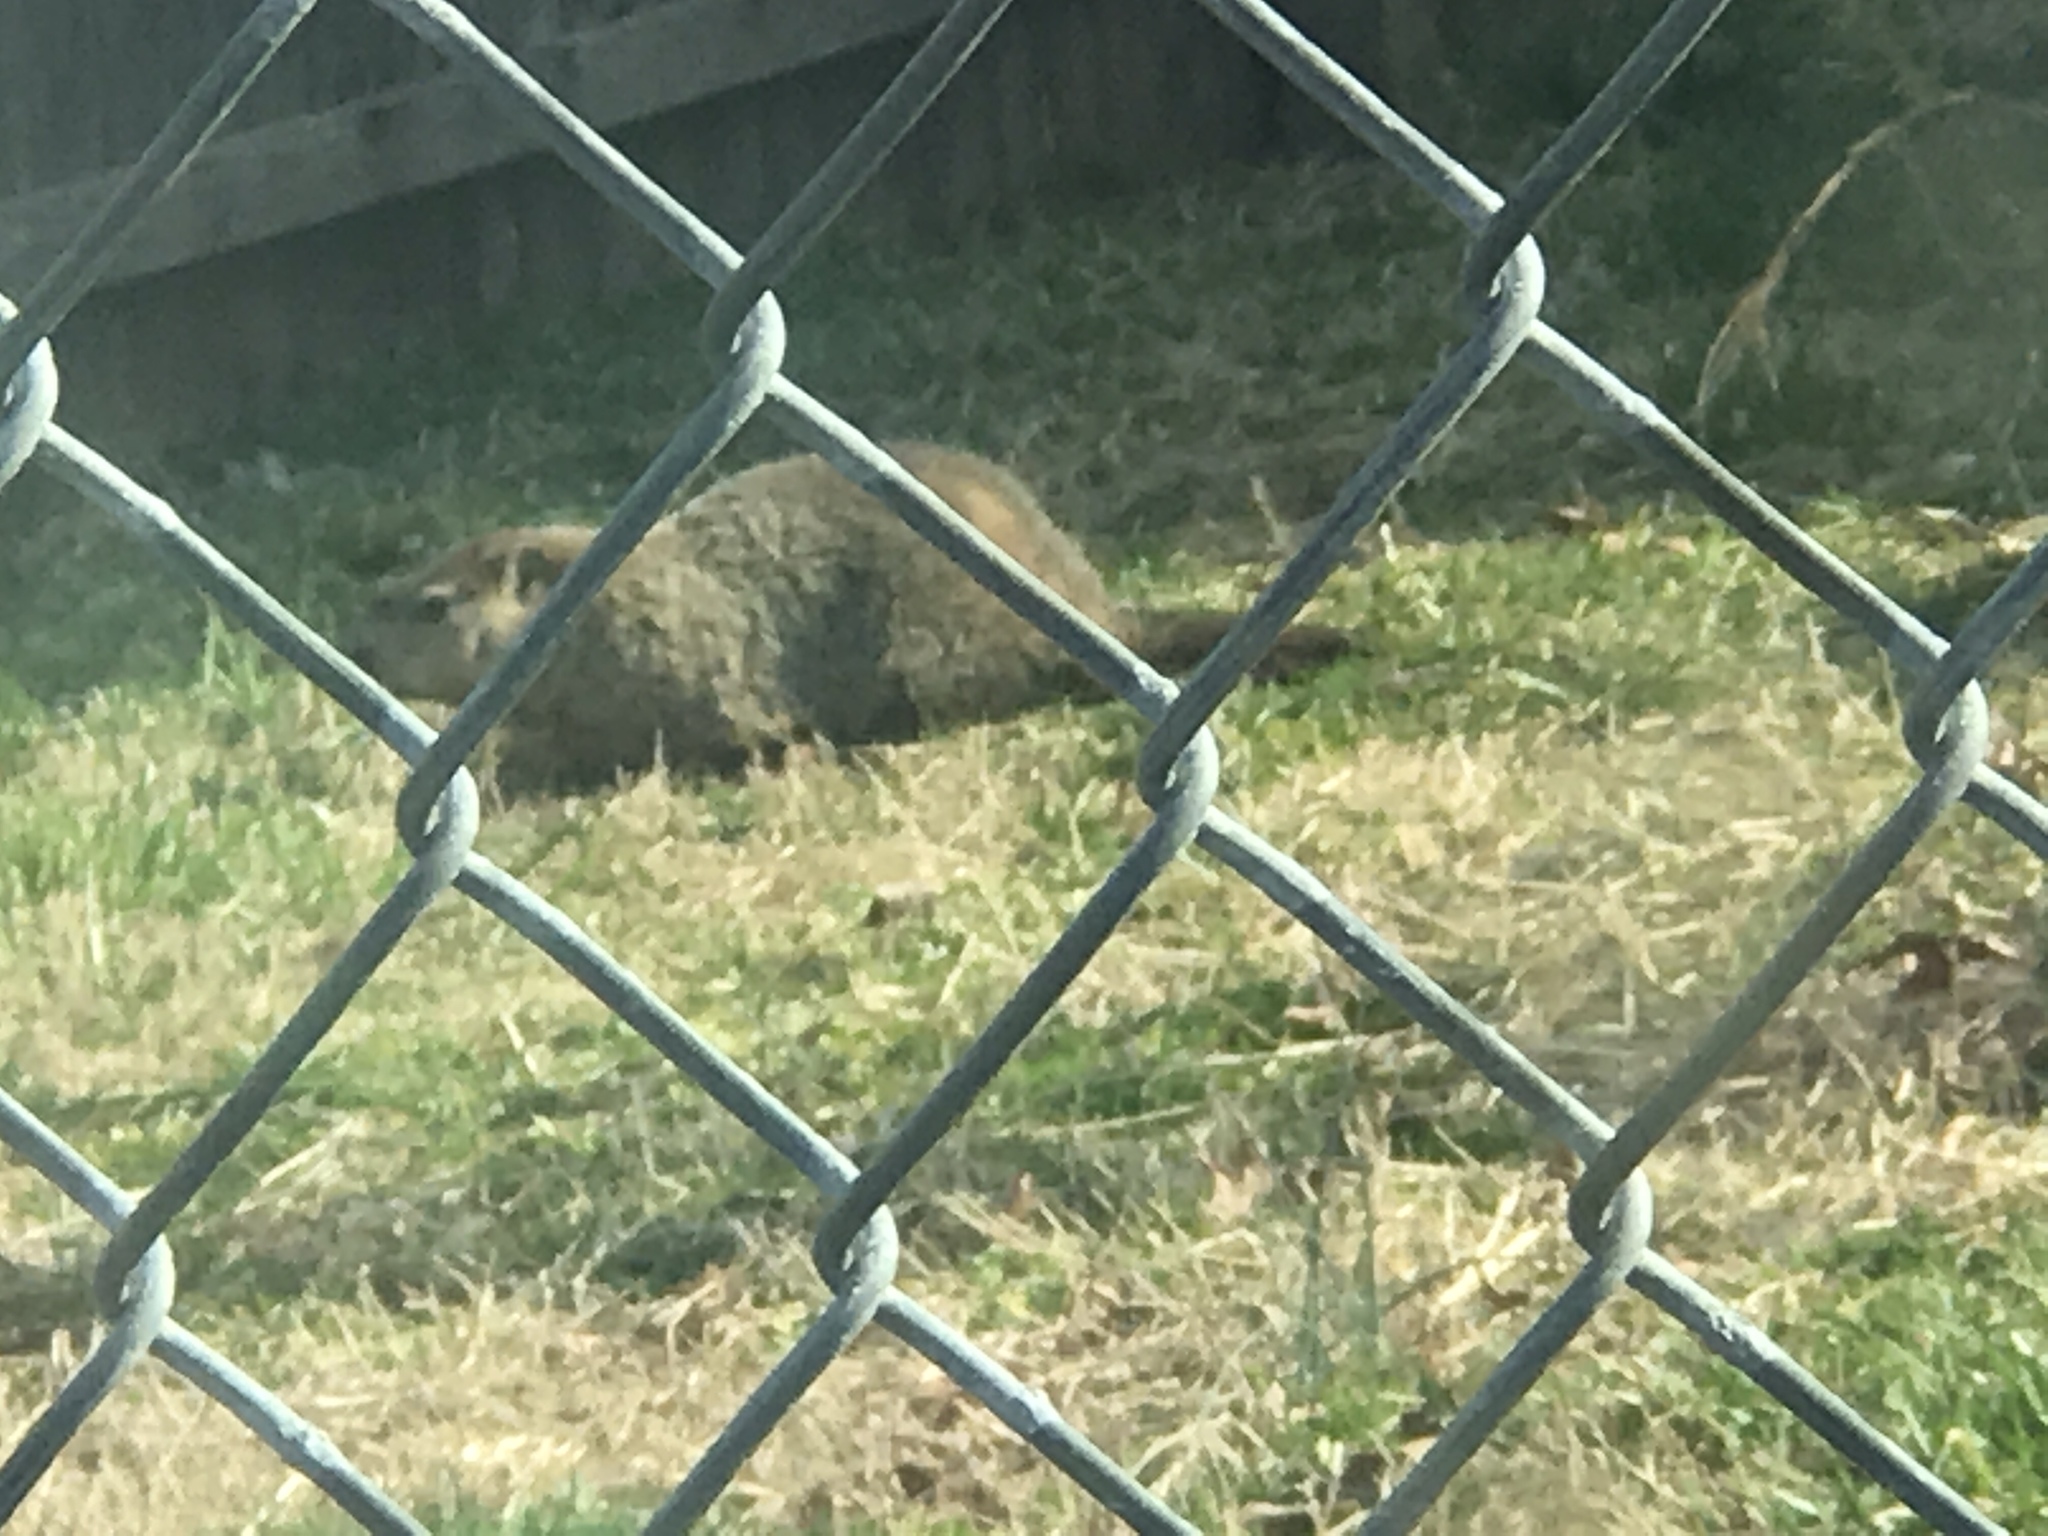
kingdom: Animalia
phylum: Chordata
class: Mammalia
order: Rodentia
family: Sciuridae
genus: Marmota
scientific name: Marmota monax
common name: Groundhog
